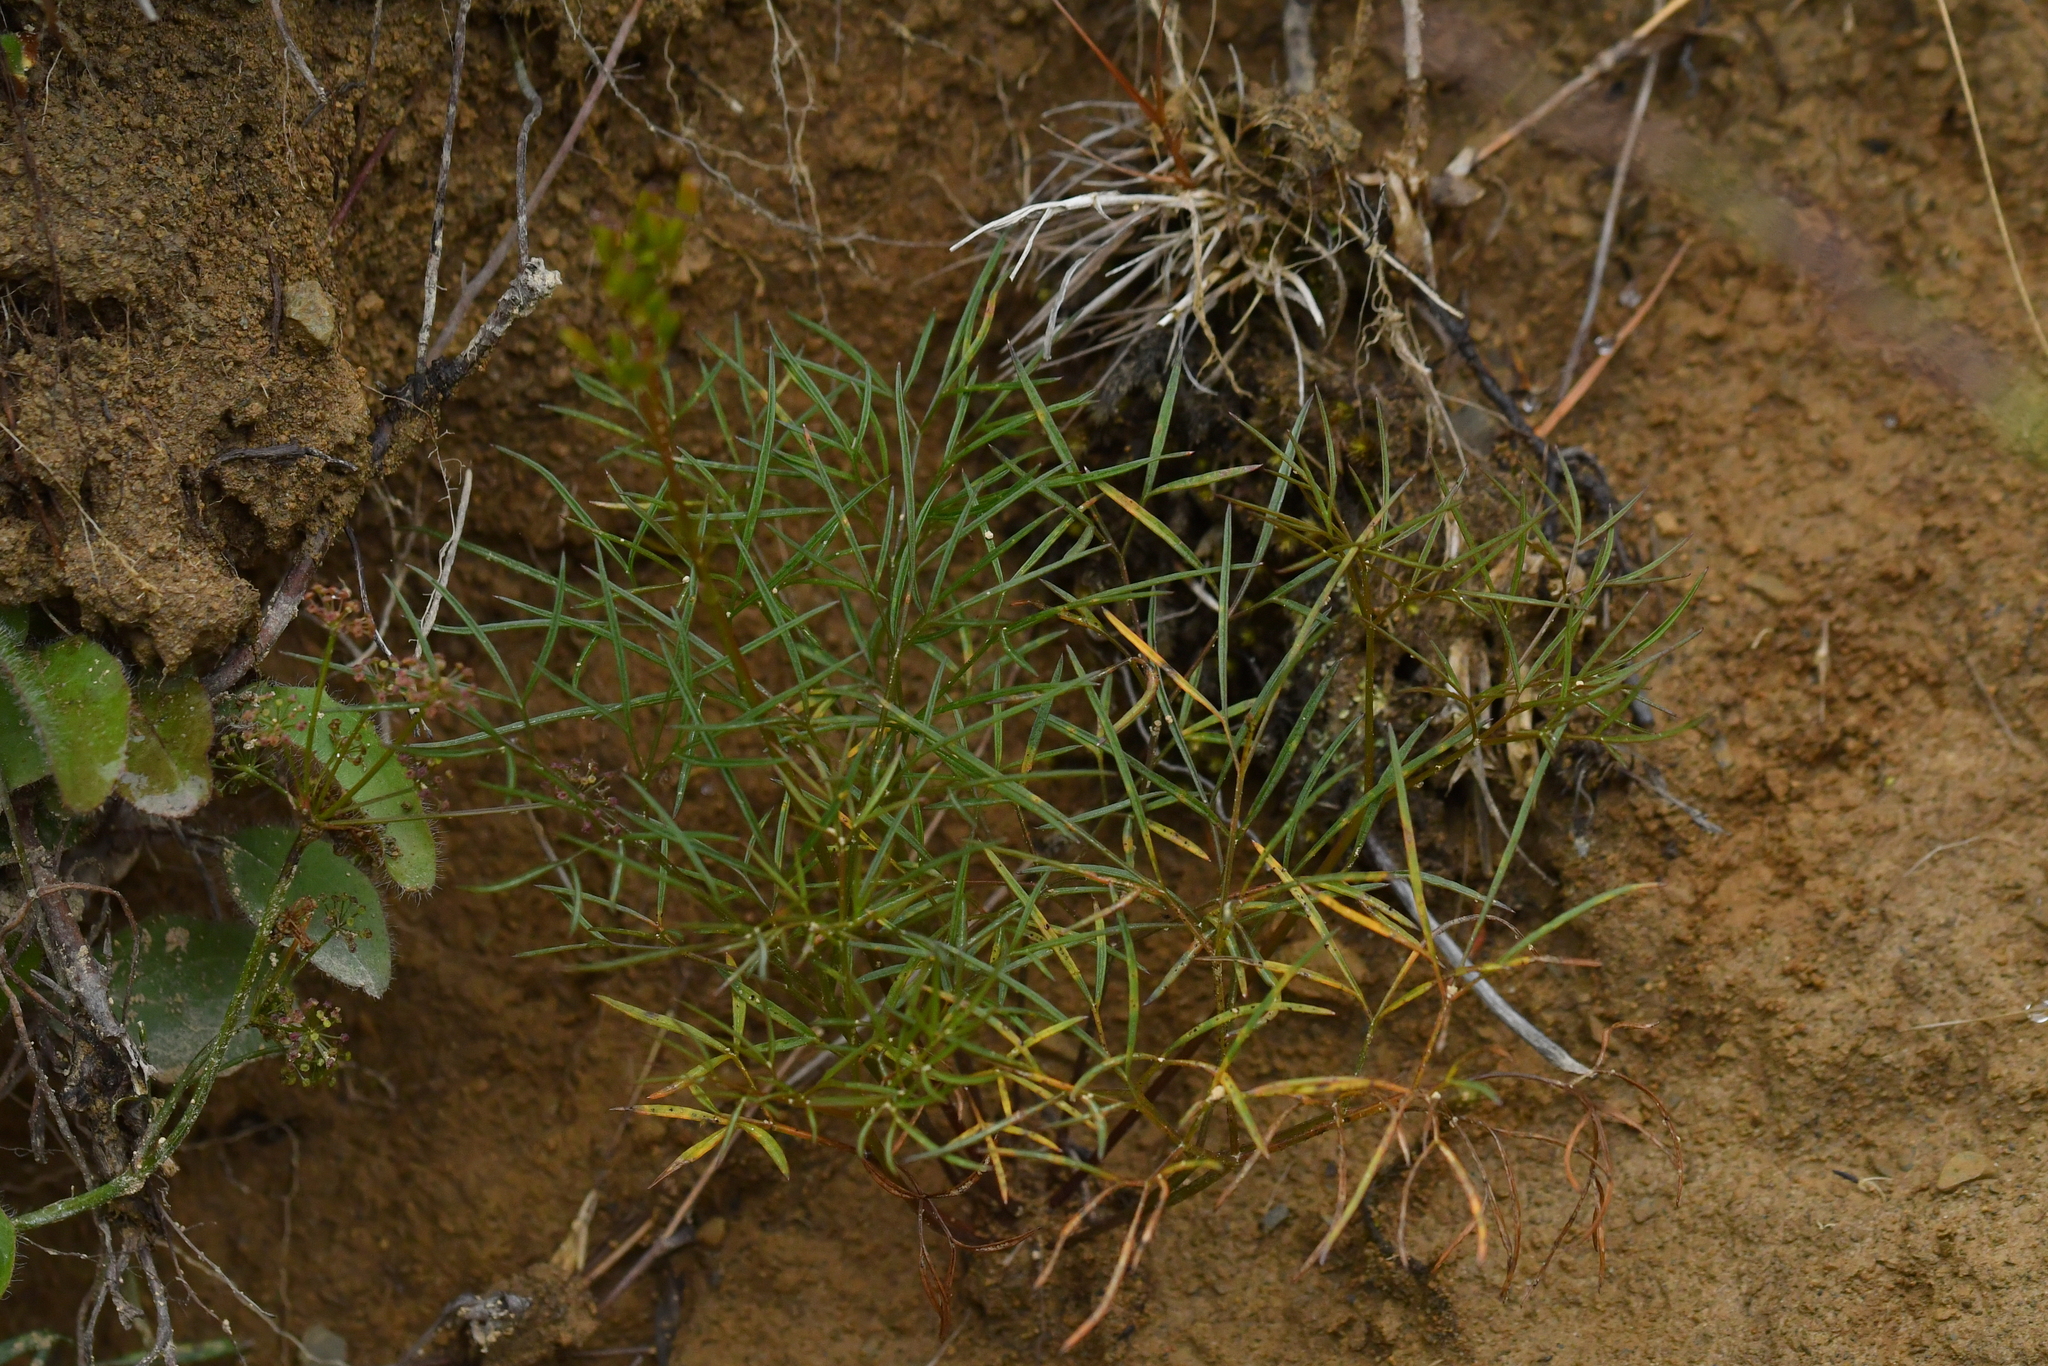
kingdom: Plantae
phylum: Tracheophyta
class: Magnoliopsida
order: Apiales
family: Apiaceae
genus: Anisotome
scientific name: Anisotome filifolia
